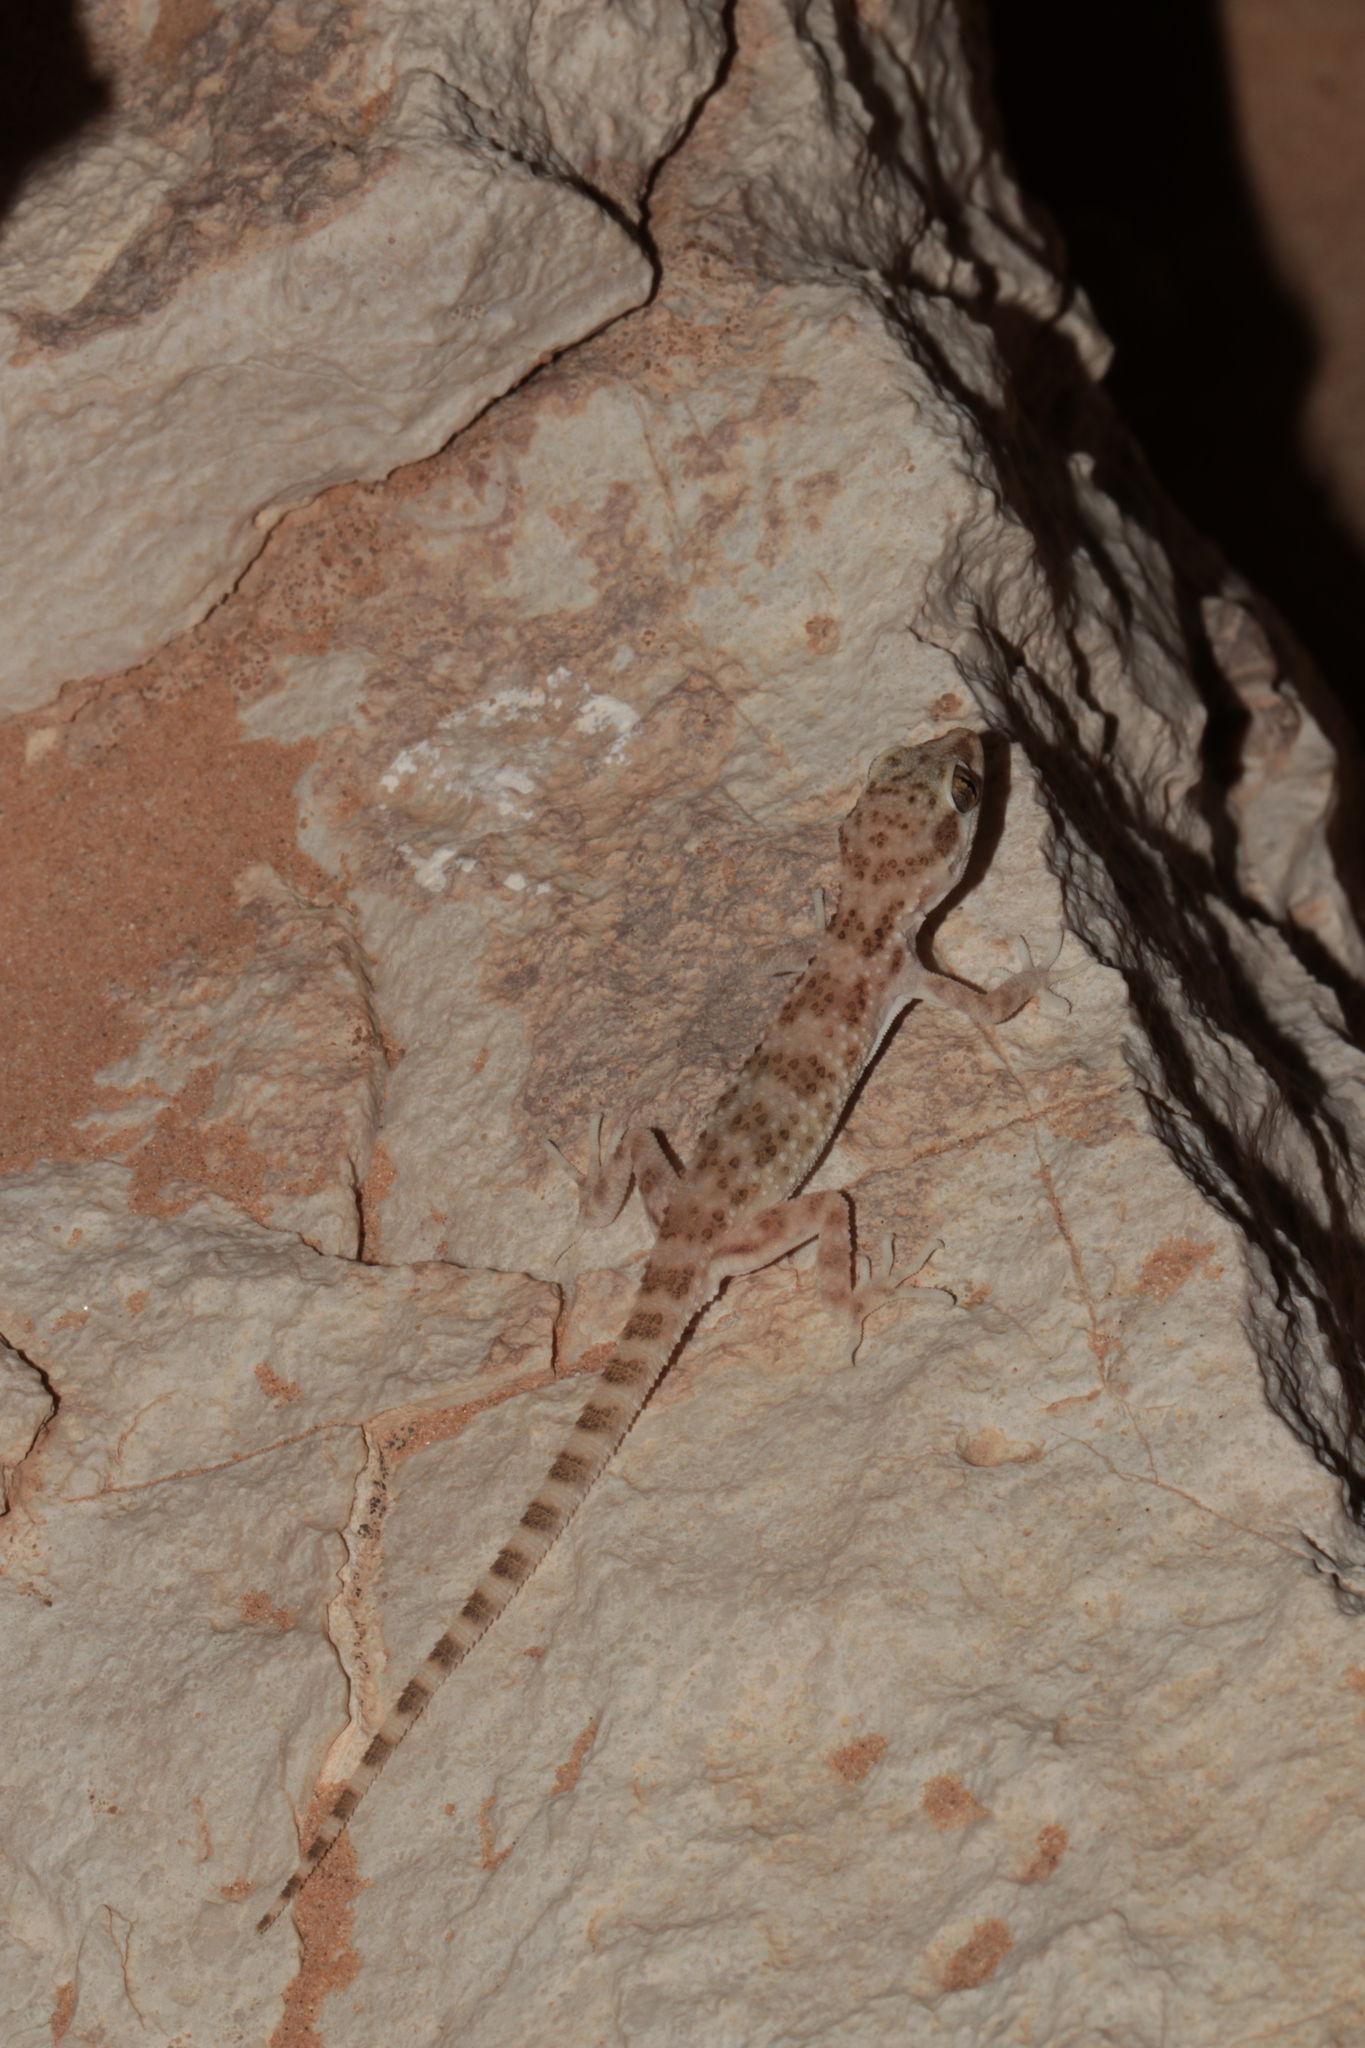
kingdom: Animalia
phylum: Chordata
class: Squamata
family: Gekkonidae
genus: Bunopus
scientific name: Bunopus tuberculatus
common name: Southern tuberculated gecko
